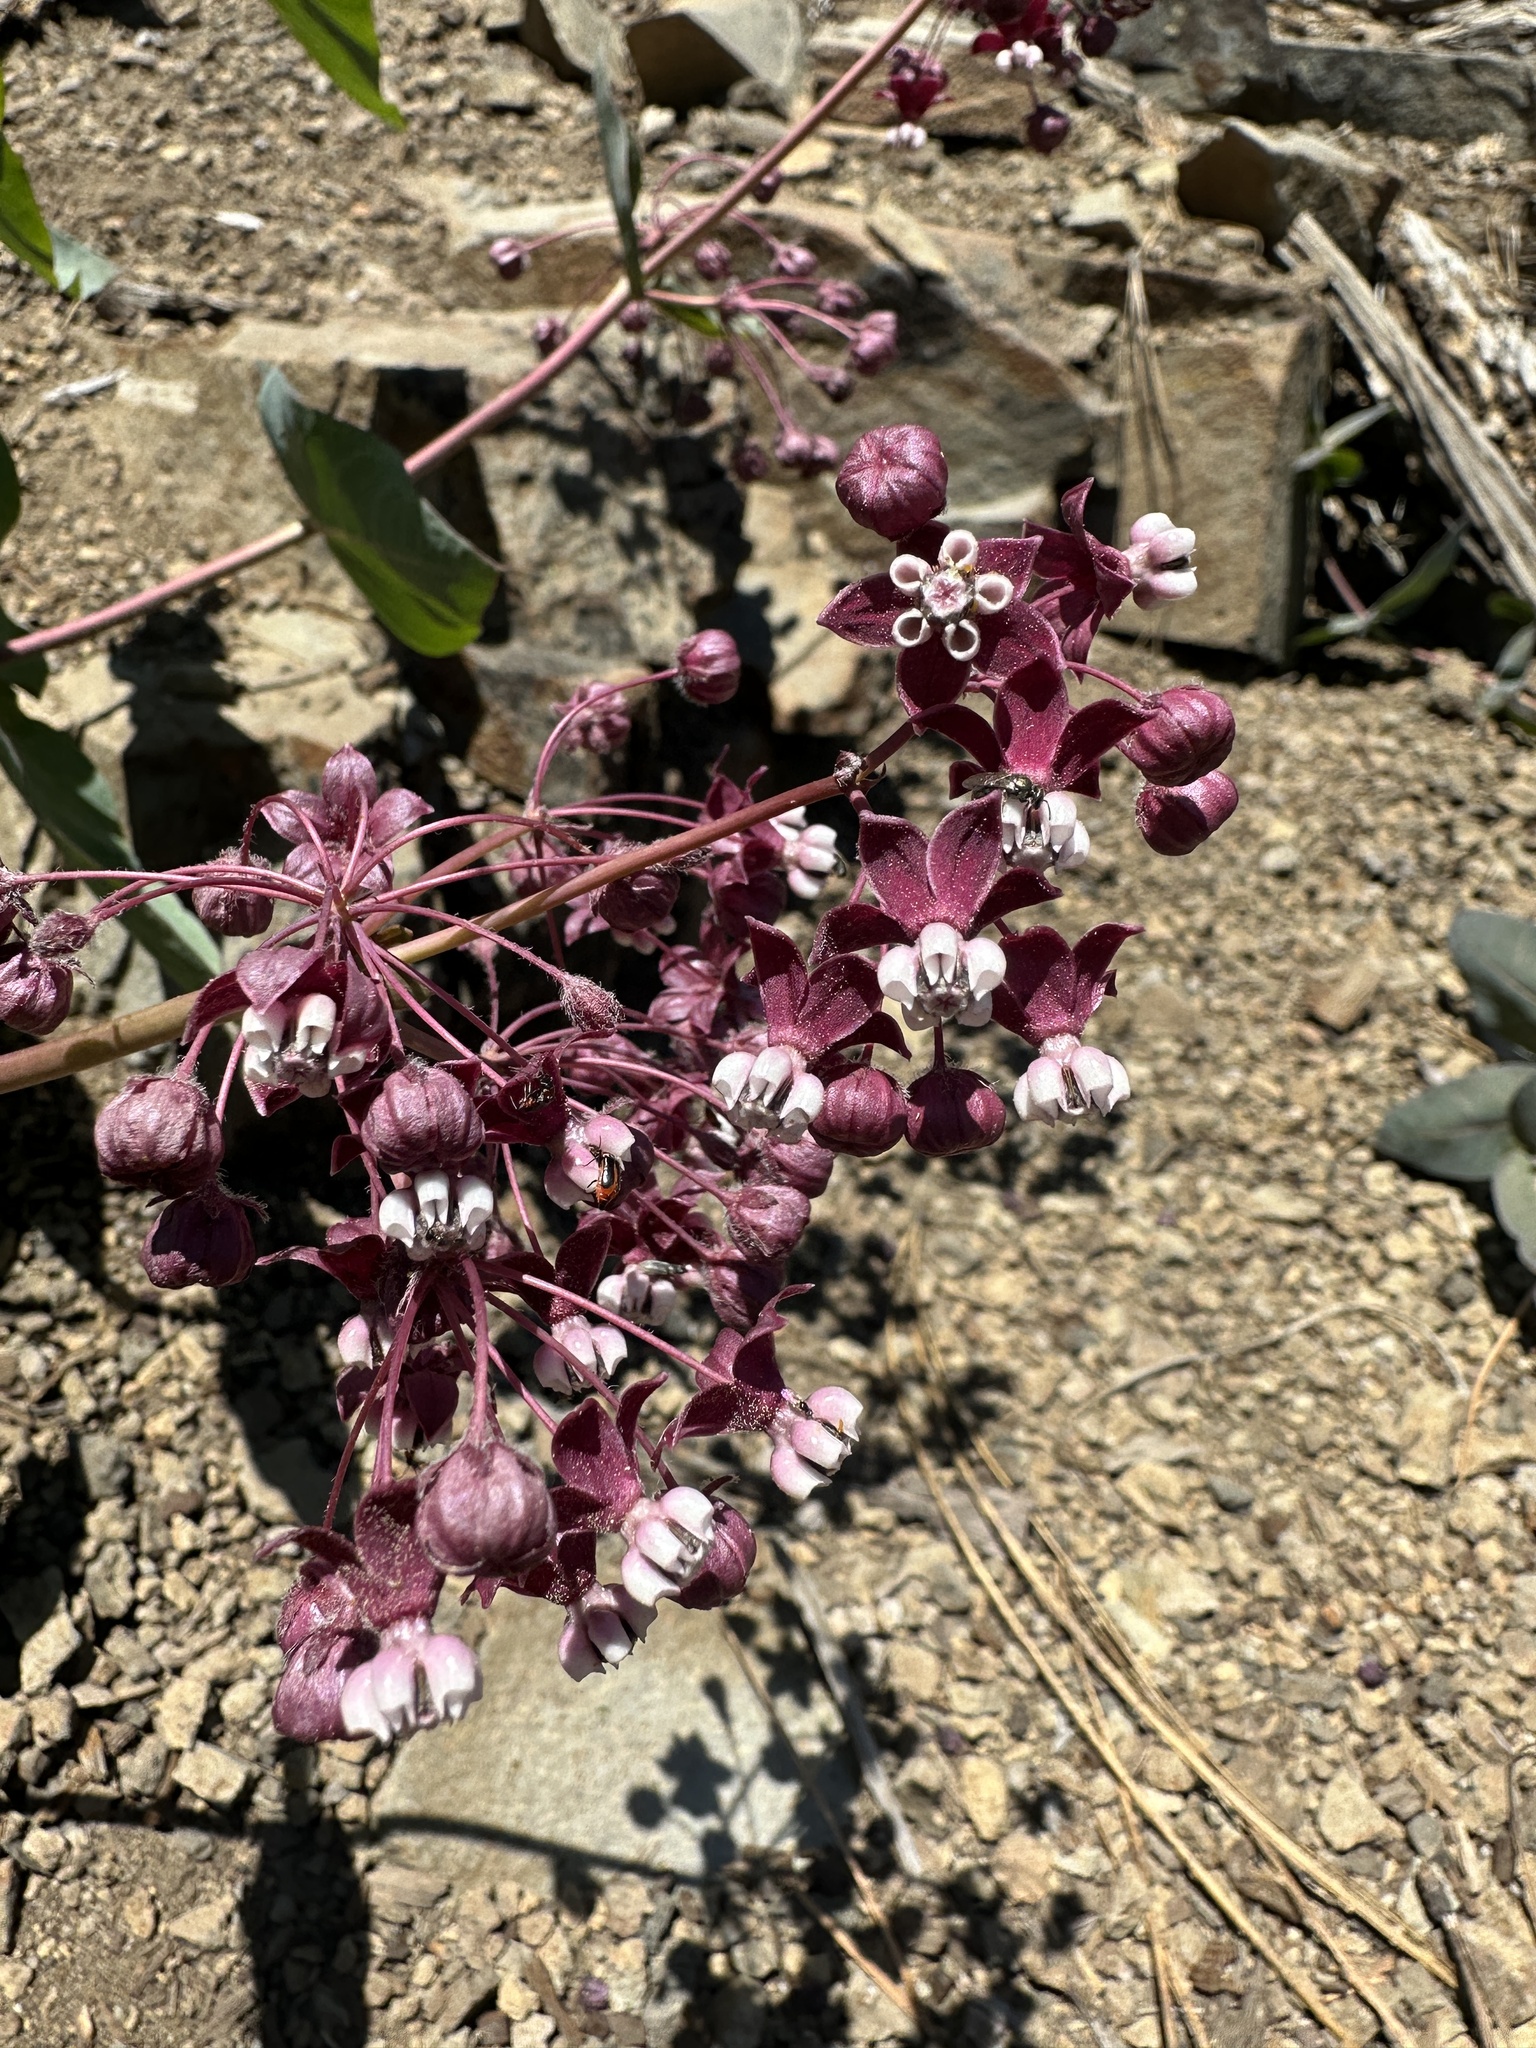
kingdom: Plantae
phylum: Tracheophyta
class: Magnoliopsida
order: Gentianales
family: Apocynaceae
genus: Asclepias
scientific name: Asclepias cordifolia
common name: Purple milkweed
